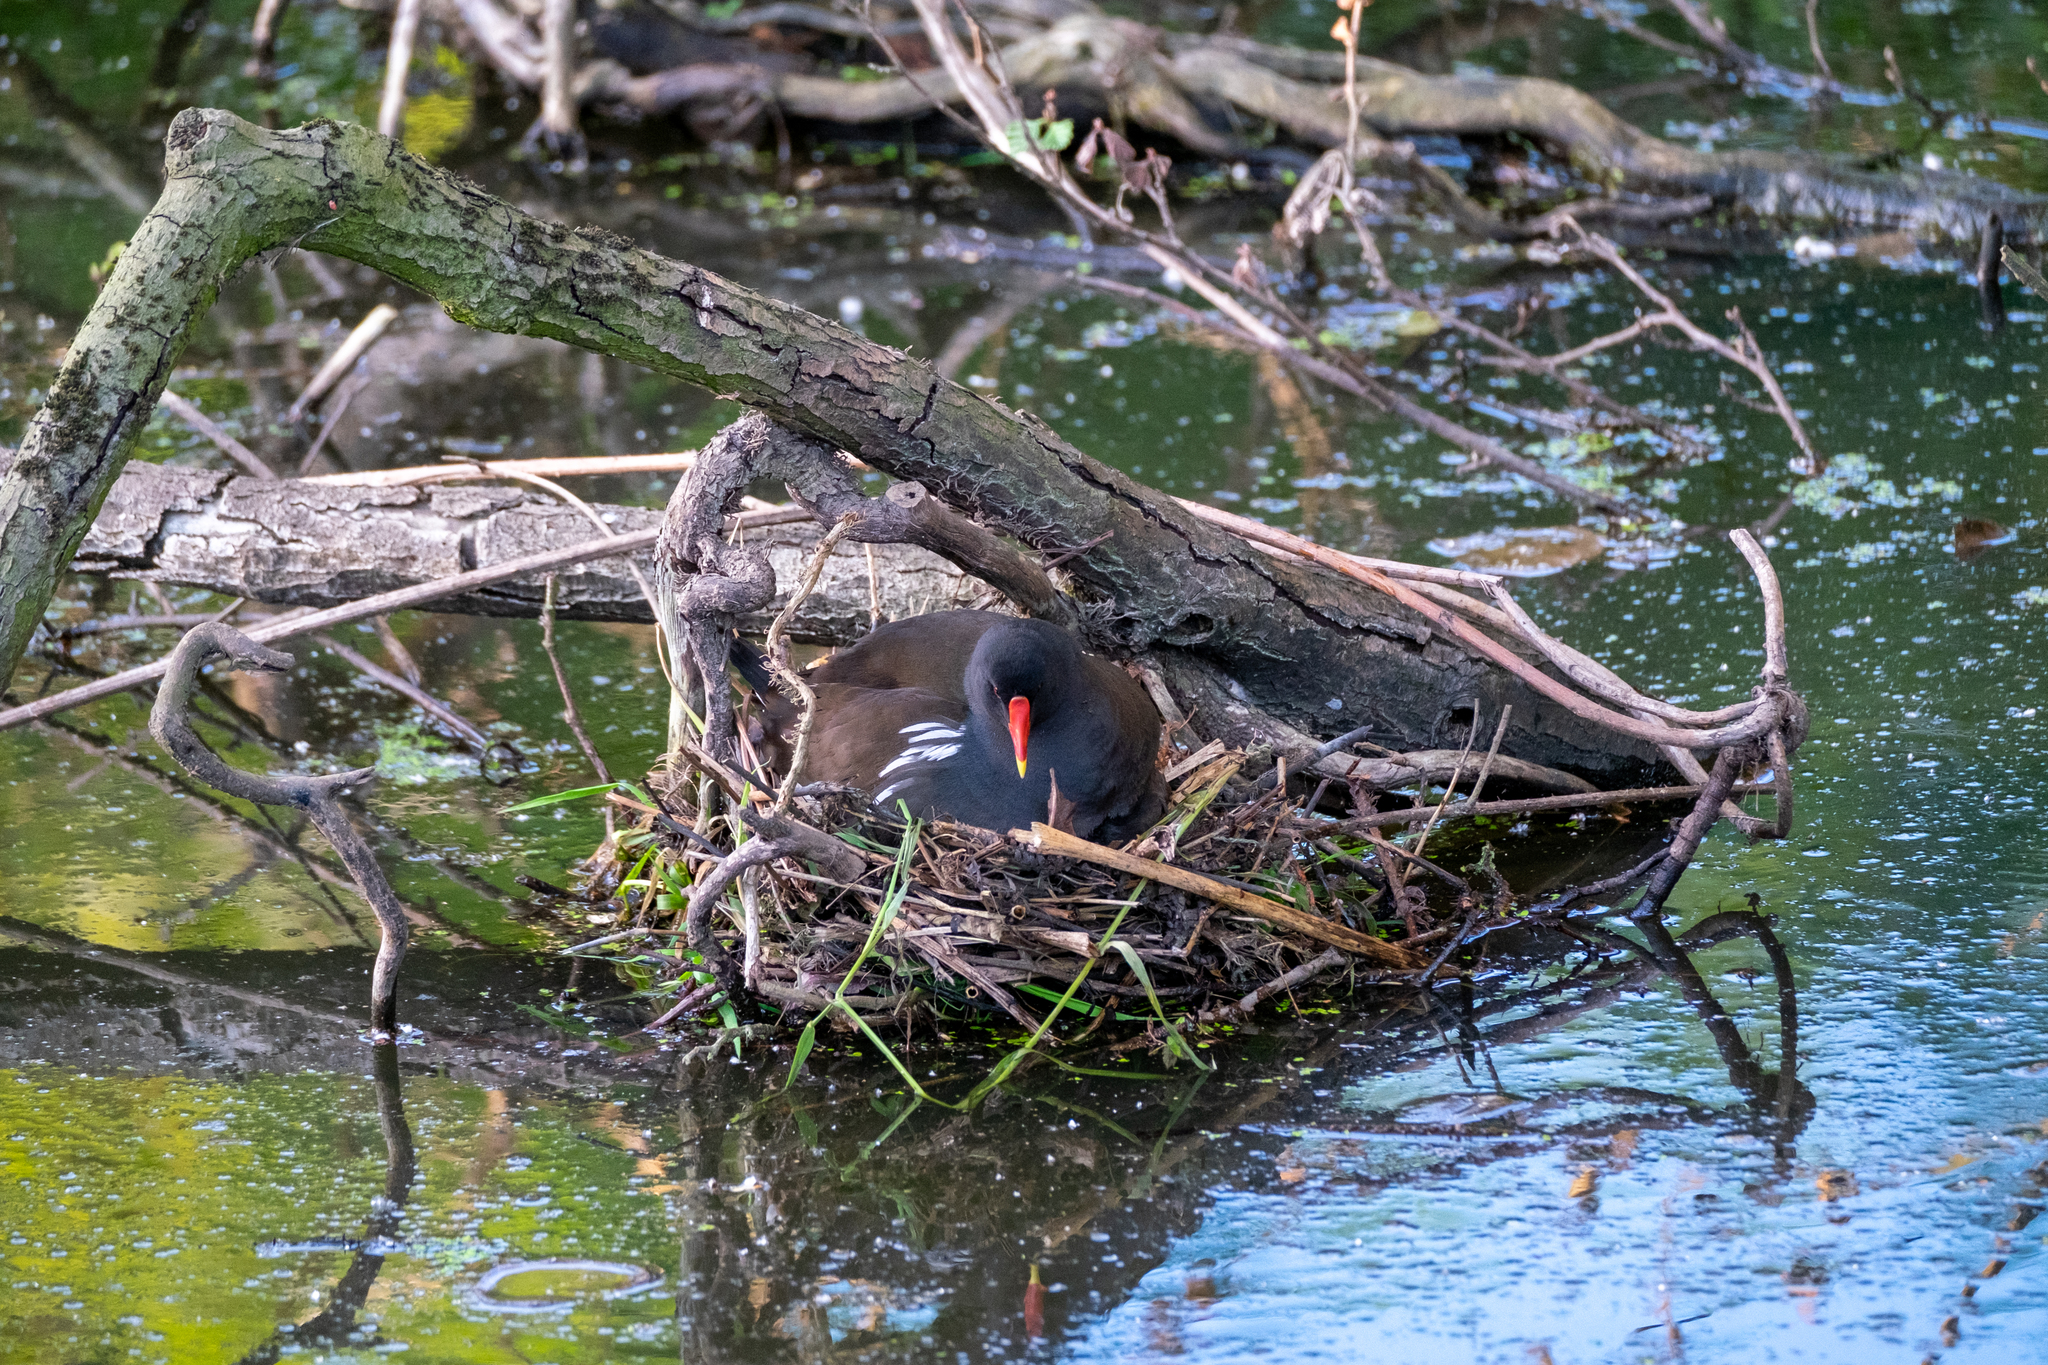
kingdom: Animalia
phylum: Chordata
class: Aves
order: Gruiformes
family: Rallidae
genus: Gallinula
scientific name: Gallinula chloropus
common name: Common moorhen
